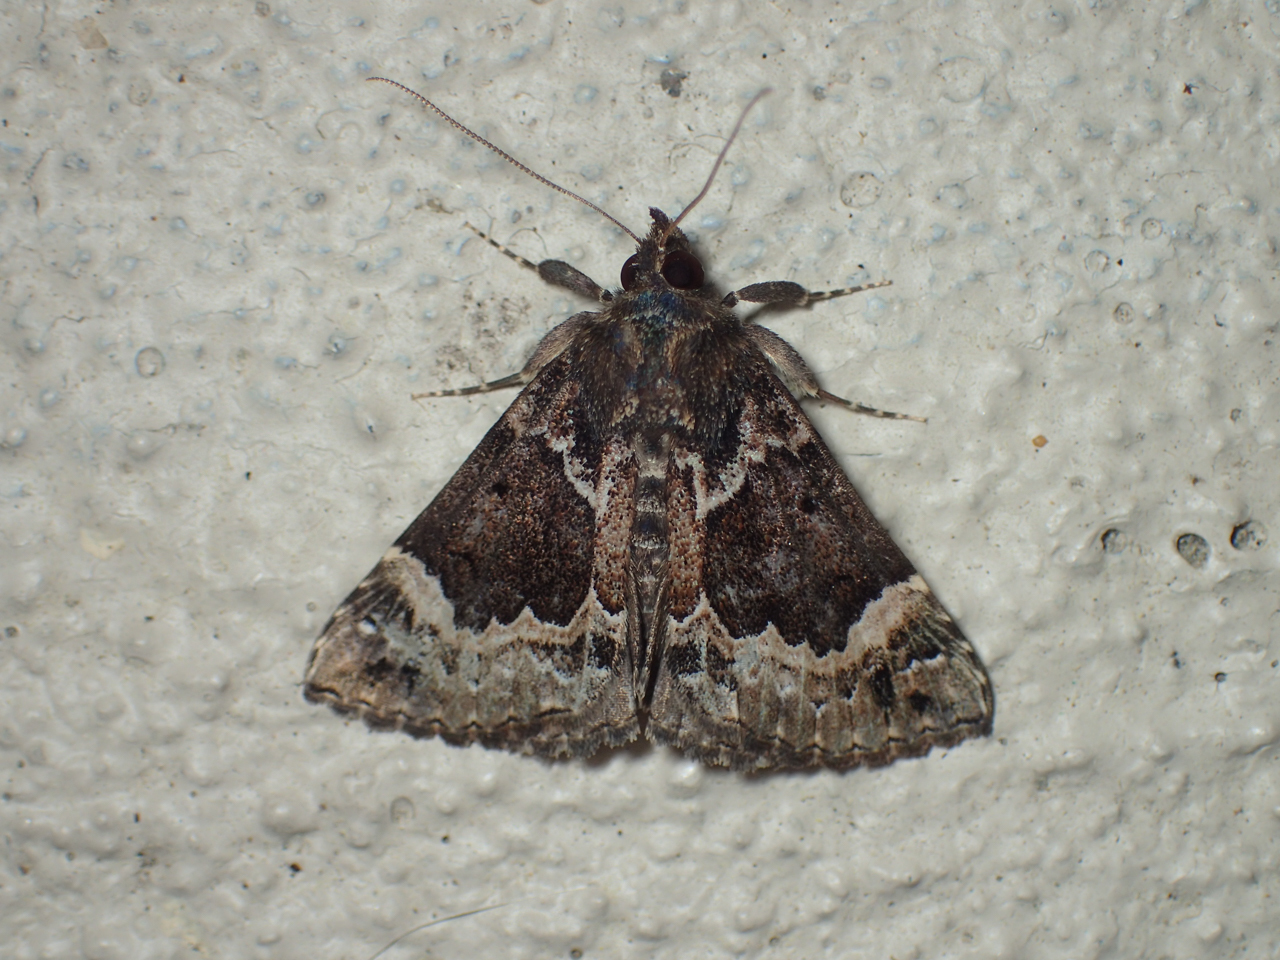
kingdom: Animalia
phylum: Arthropoda
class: Insecta
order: Lepidoptera
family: Erebidae
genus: Hypena
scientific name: Hypena palparia
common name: Mottled bomolocha moth
